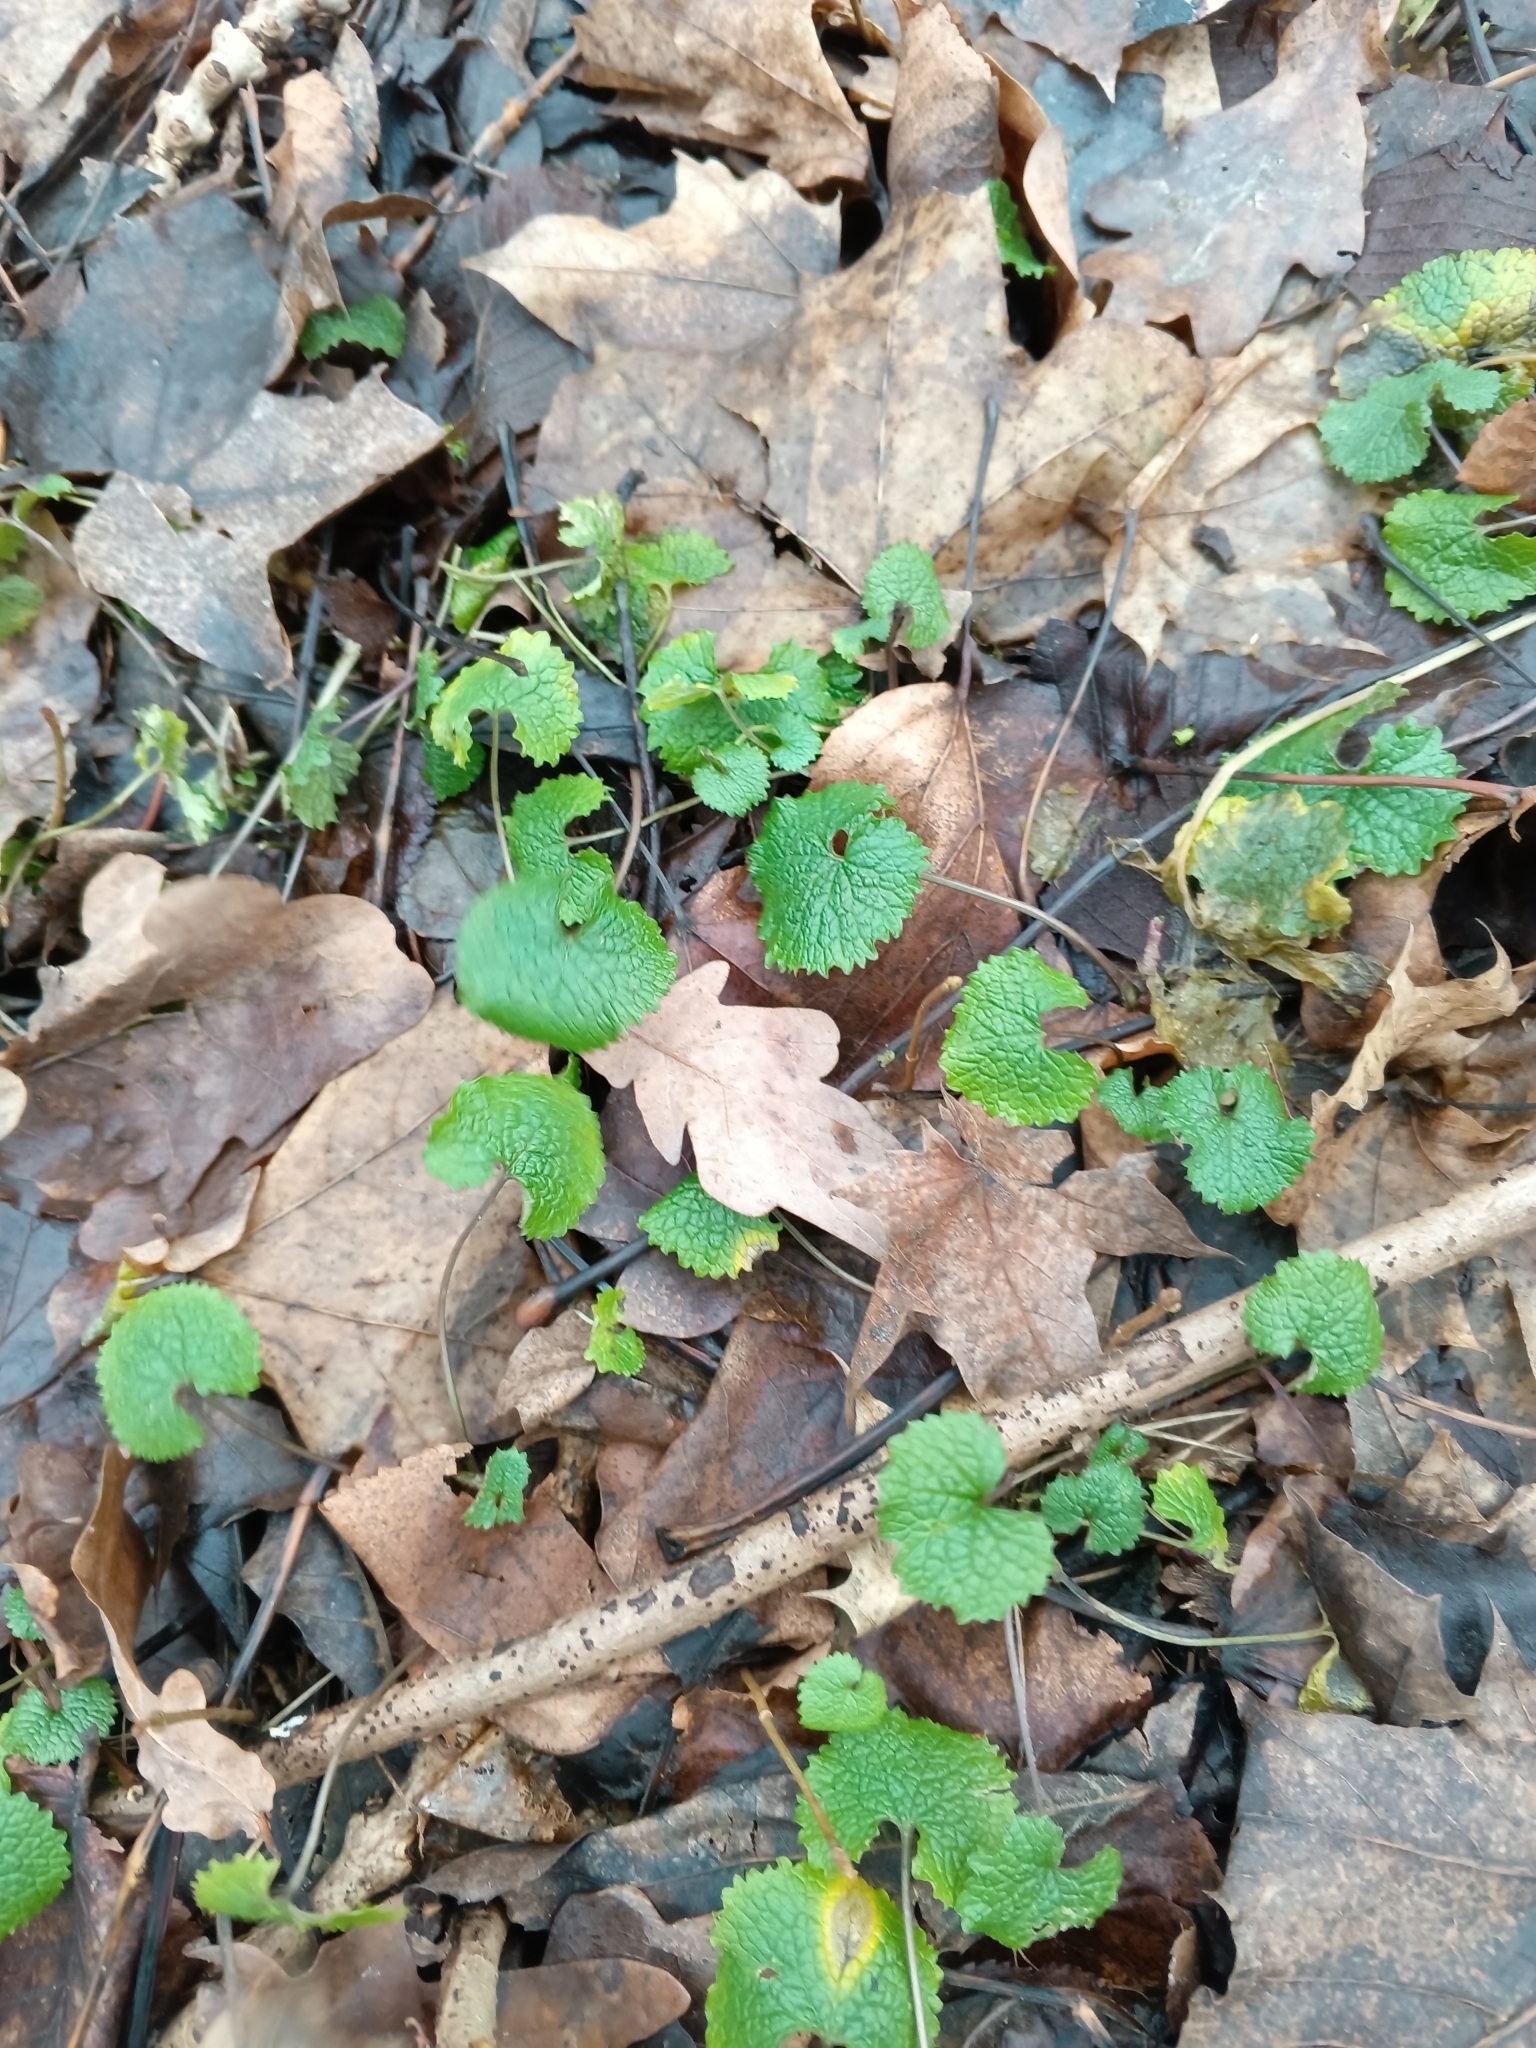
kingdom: Plantae
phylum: Tracheophyta
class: Magnoliopsida
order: Brassicales
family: Brassicaceae
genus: Alliaria
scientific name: Alliaria petiolata
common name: Garlic mustard
